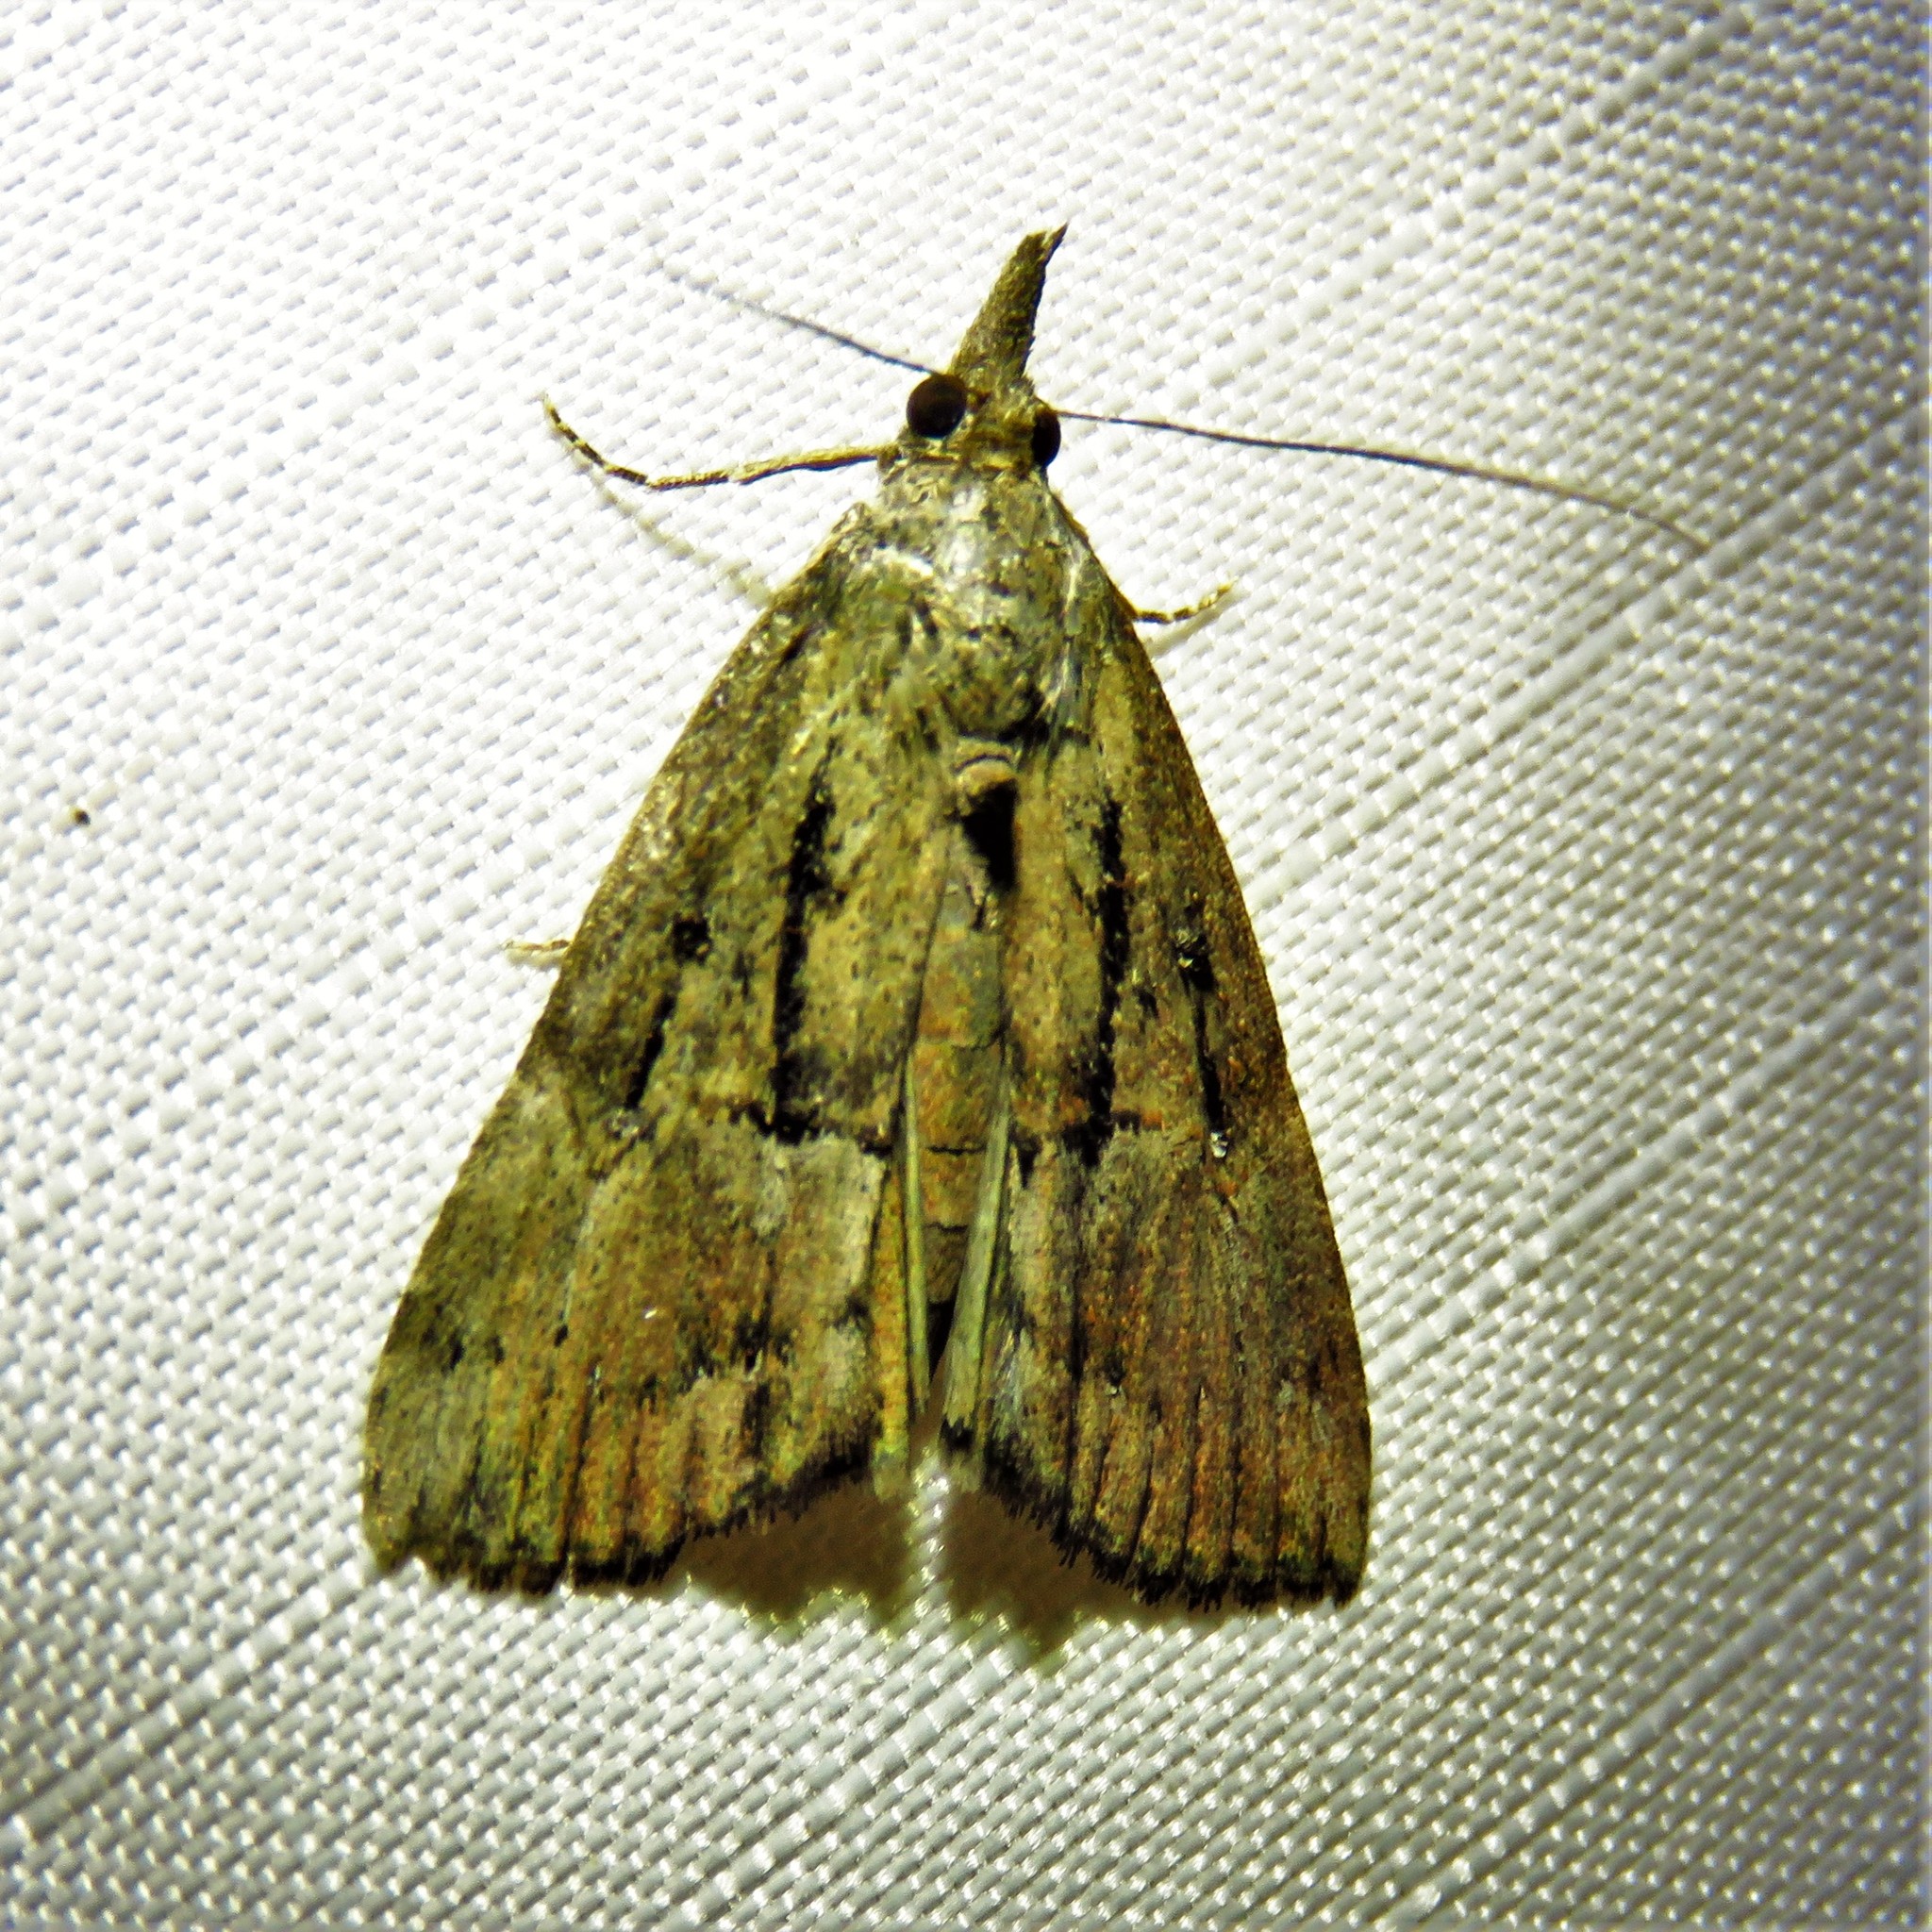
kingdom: Animalia
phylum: Arthropoda
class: Insecta
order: Lepidoptera
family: Erebidae
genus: Hypena
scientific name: Hypena scabra
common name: Green cloverworm
